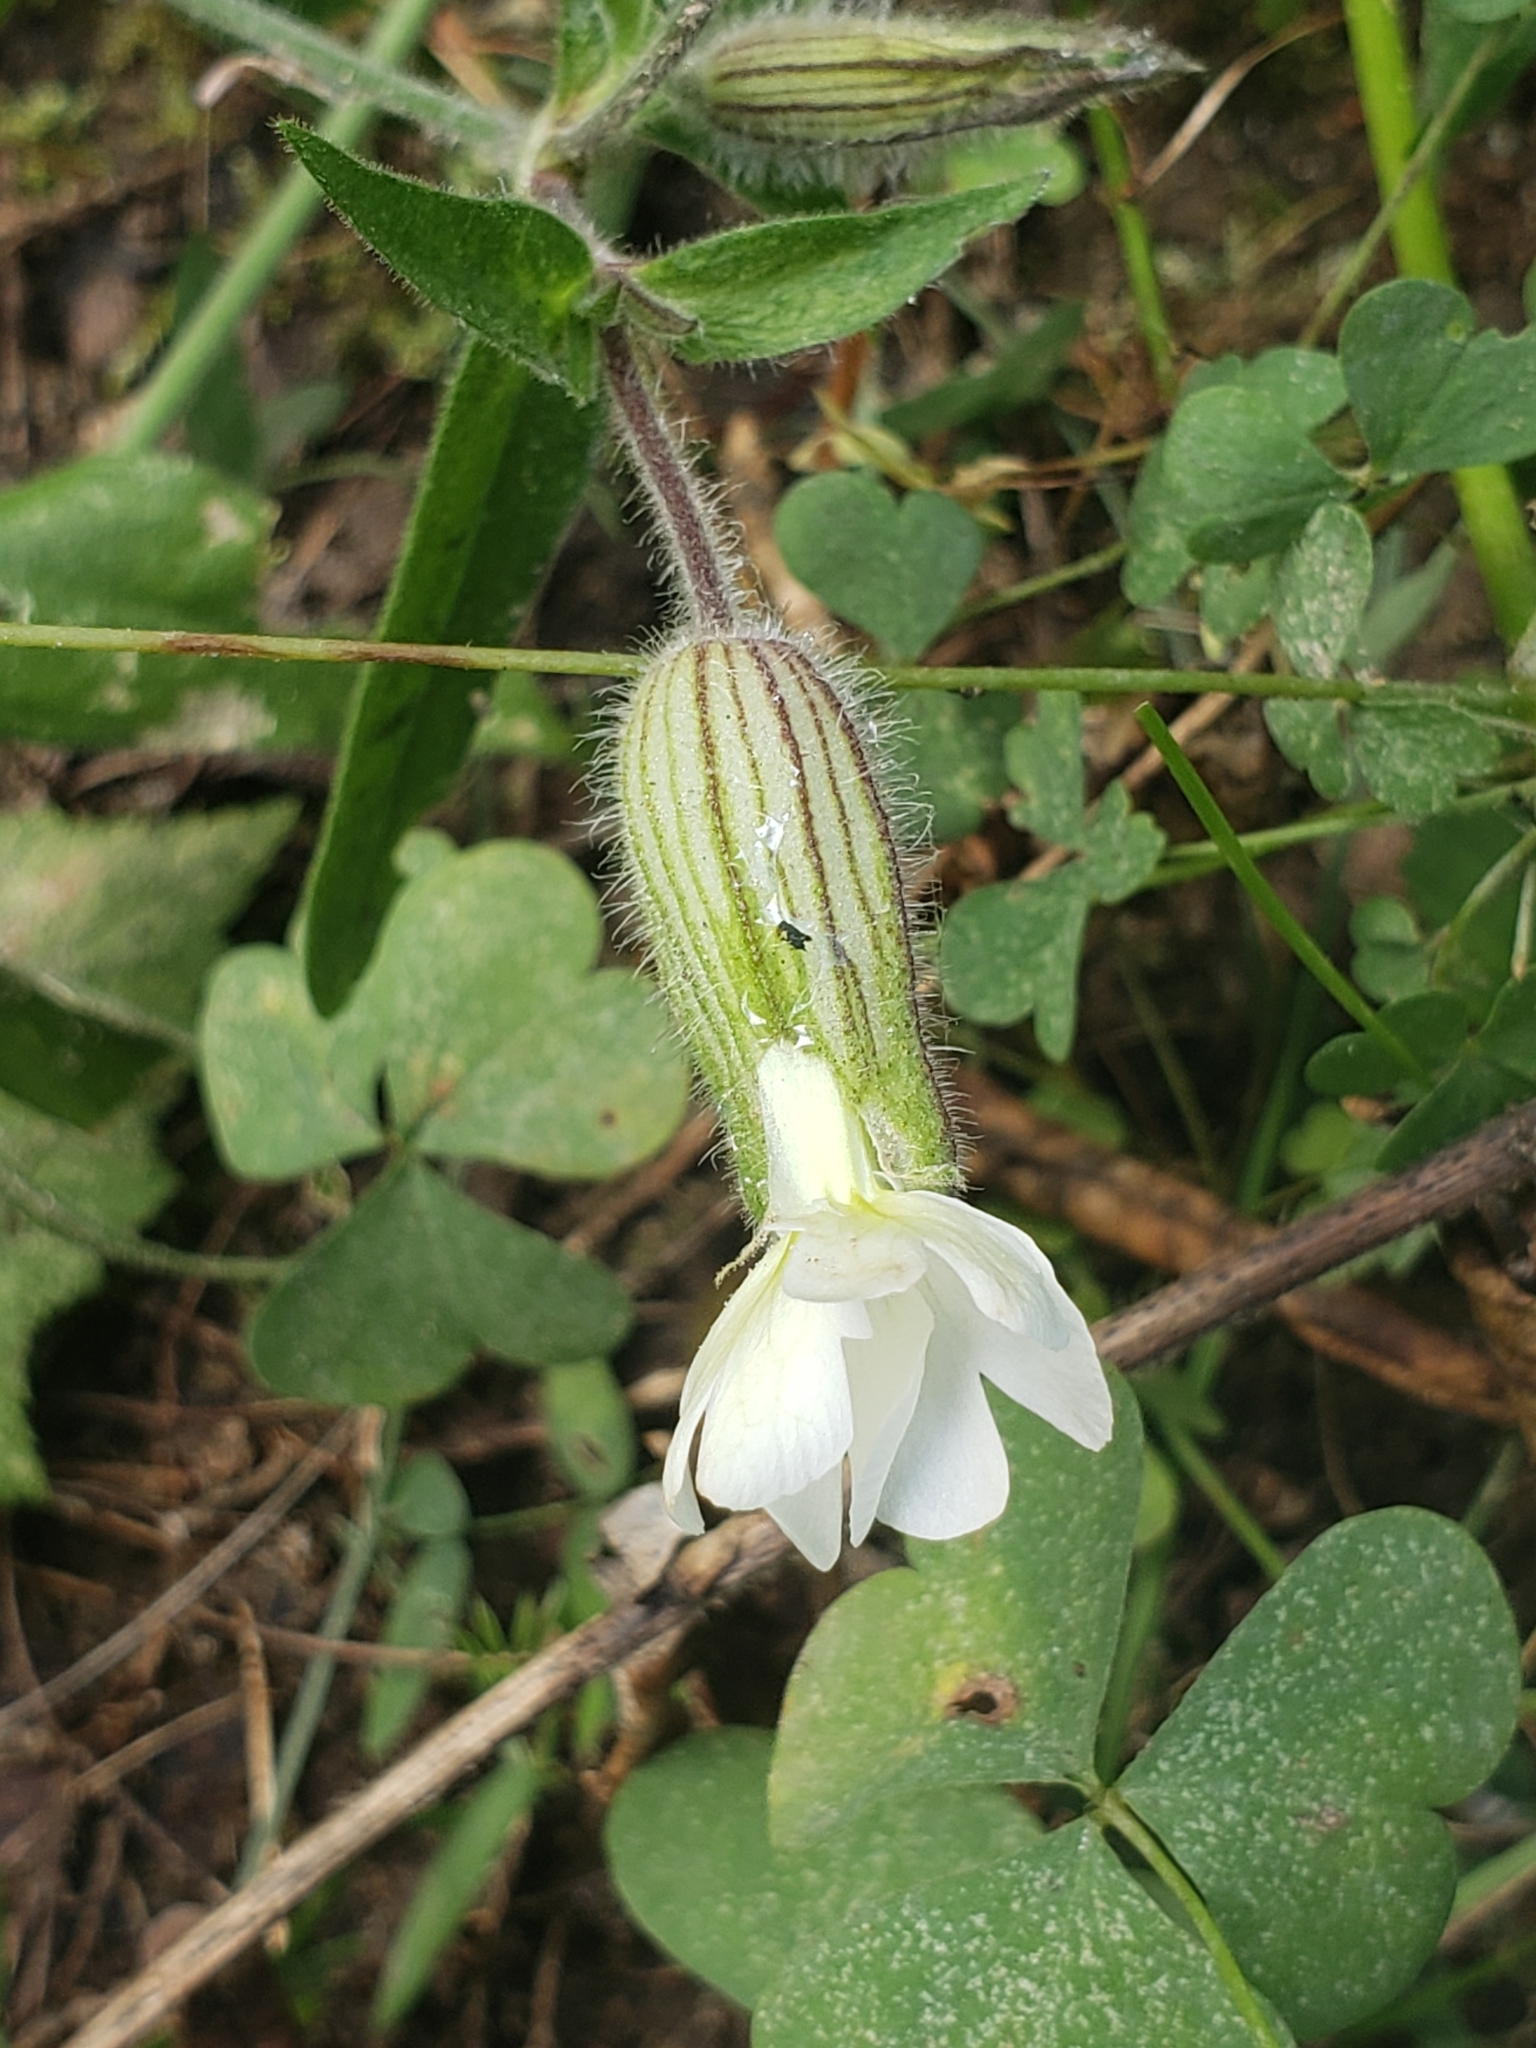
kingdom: Plantae
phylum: Tracheophyta
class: Magnoliopsida
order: Caryophyllales
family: Caryophyllaceae
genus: Silene
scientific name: Silene latifolia
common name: White campion
